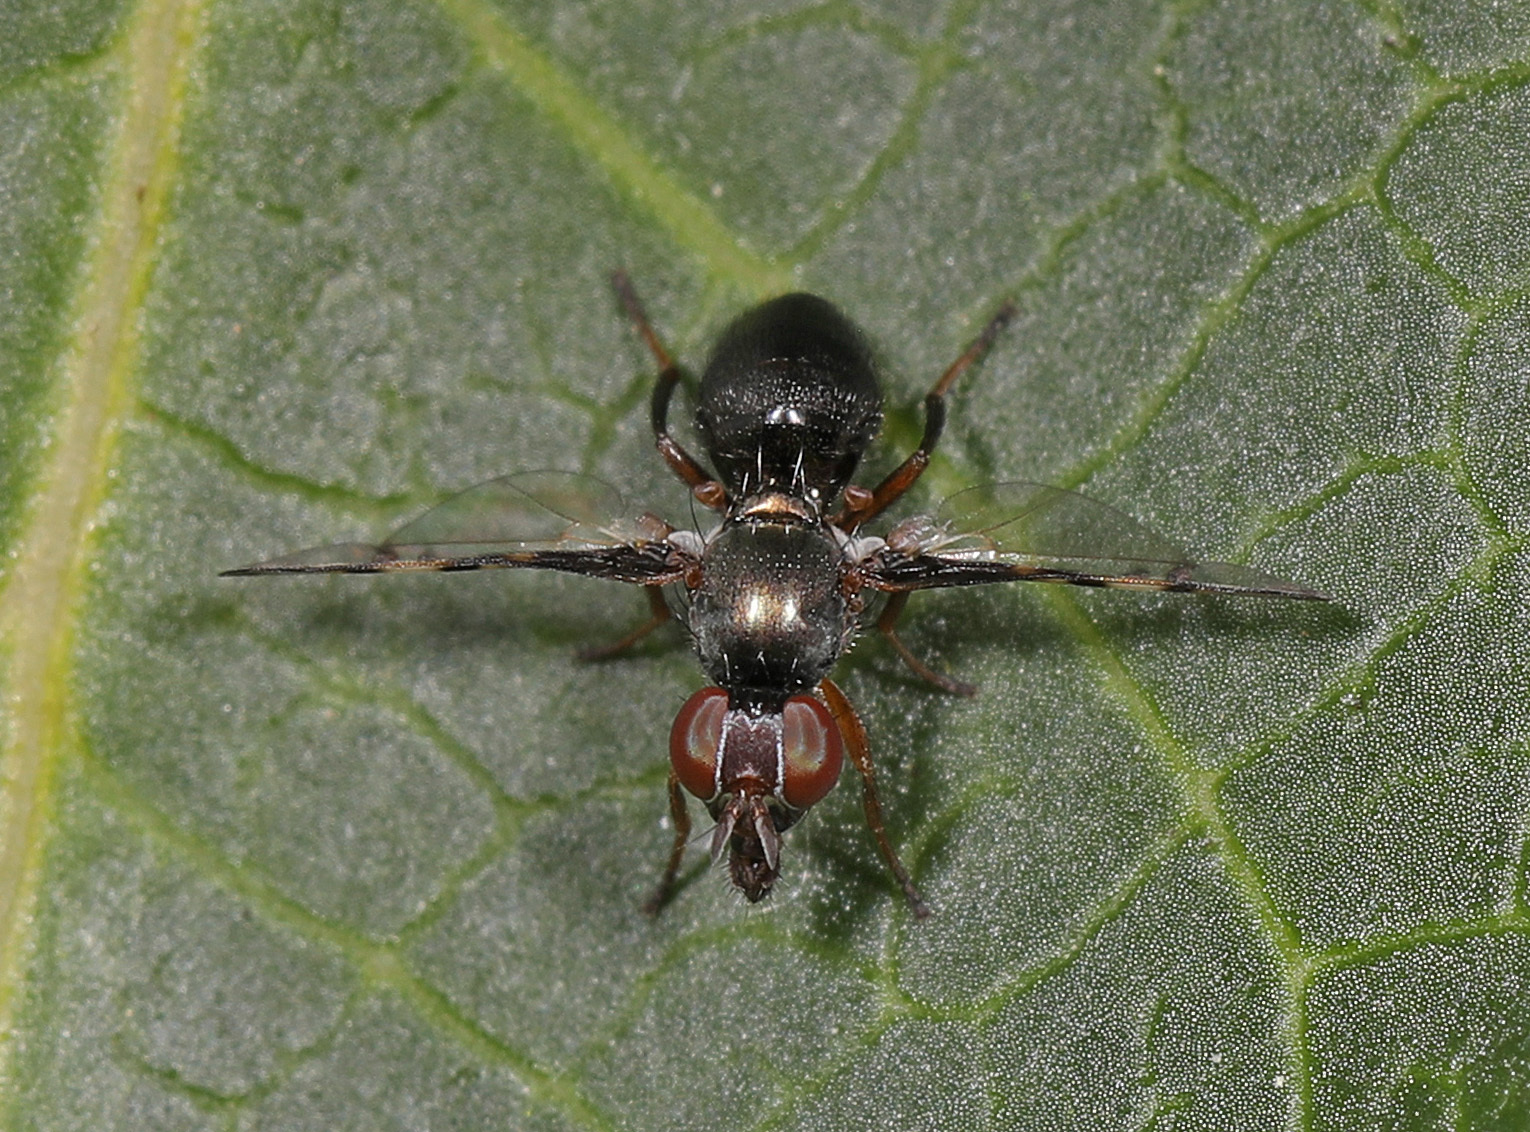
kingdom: Animalia
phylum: Arthropoda
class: Insecta
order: Diptera
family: Platystomatidae
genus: Rivellia
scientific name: Rivellia steyskali
